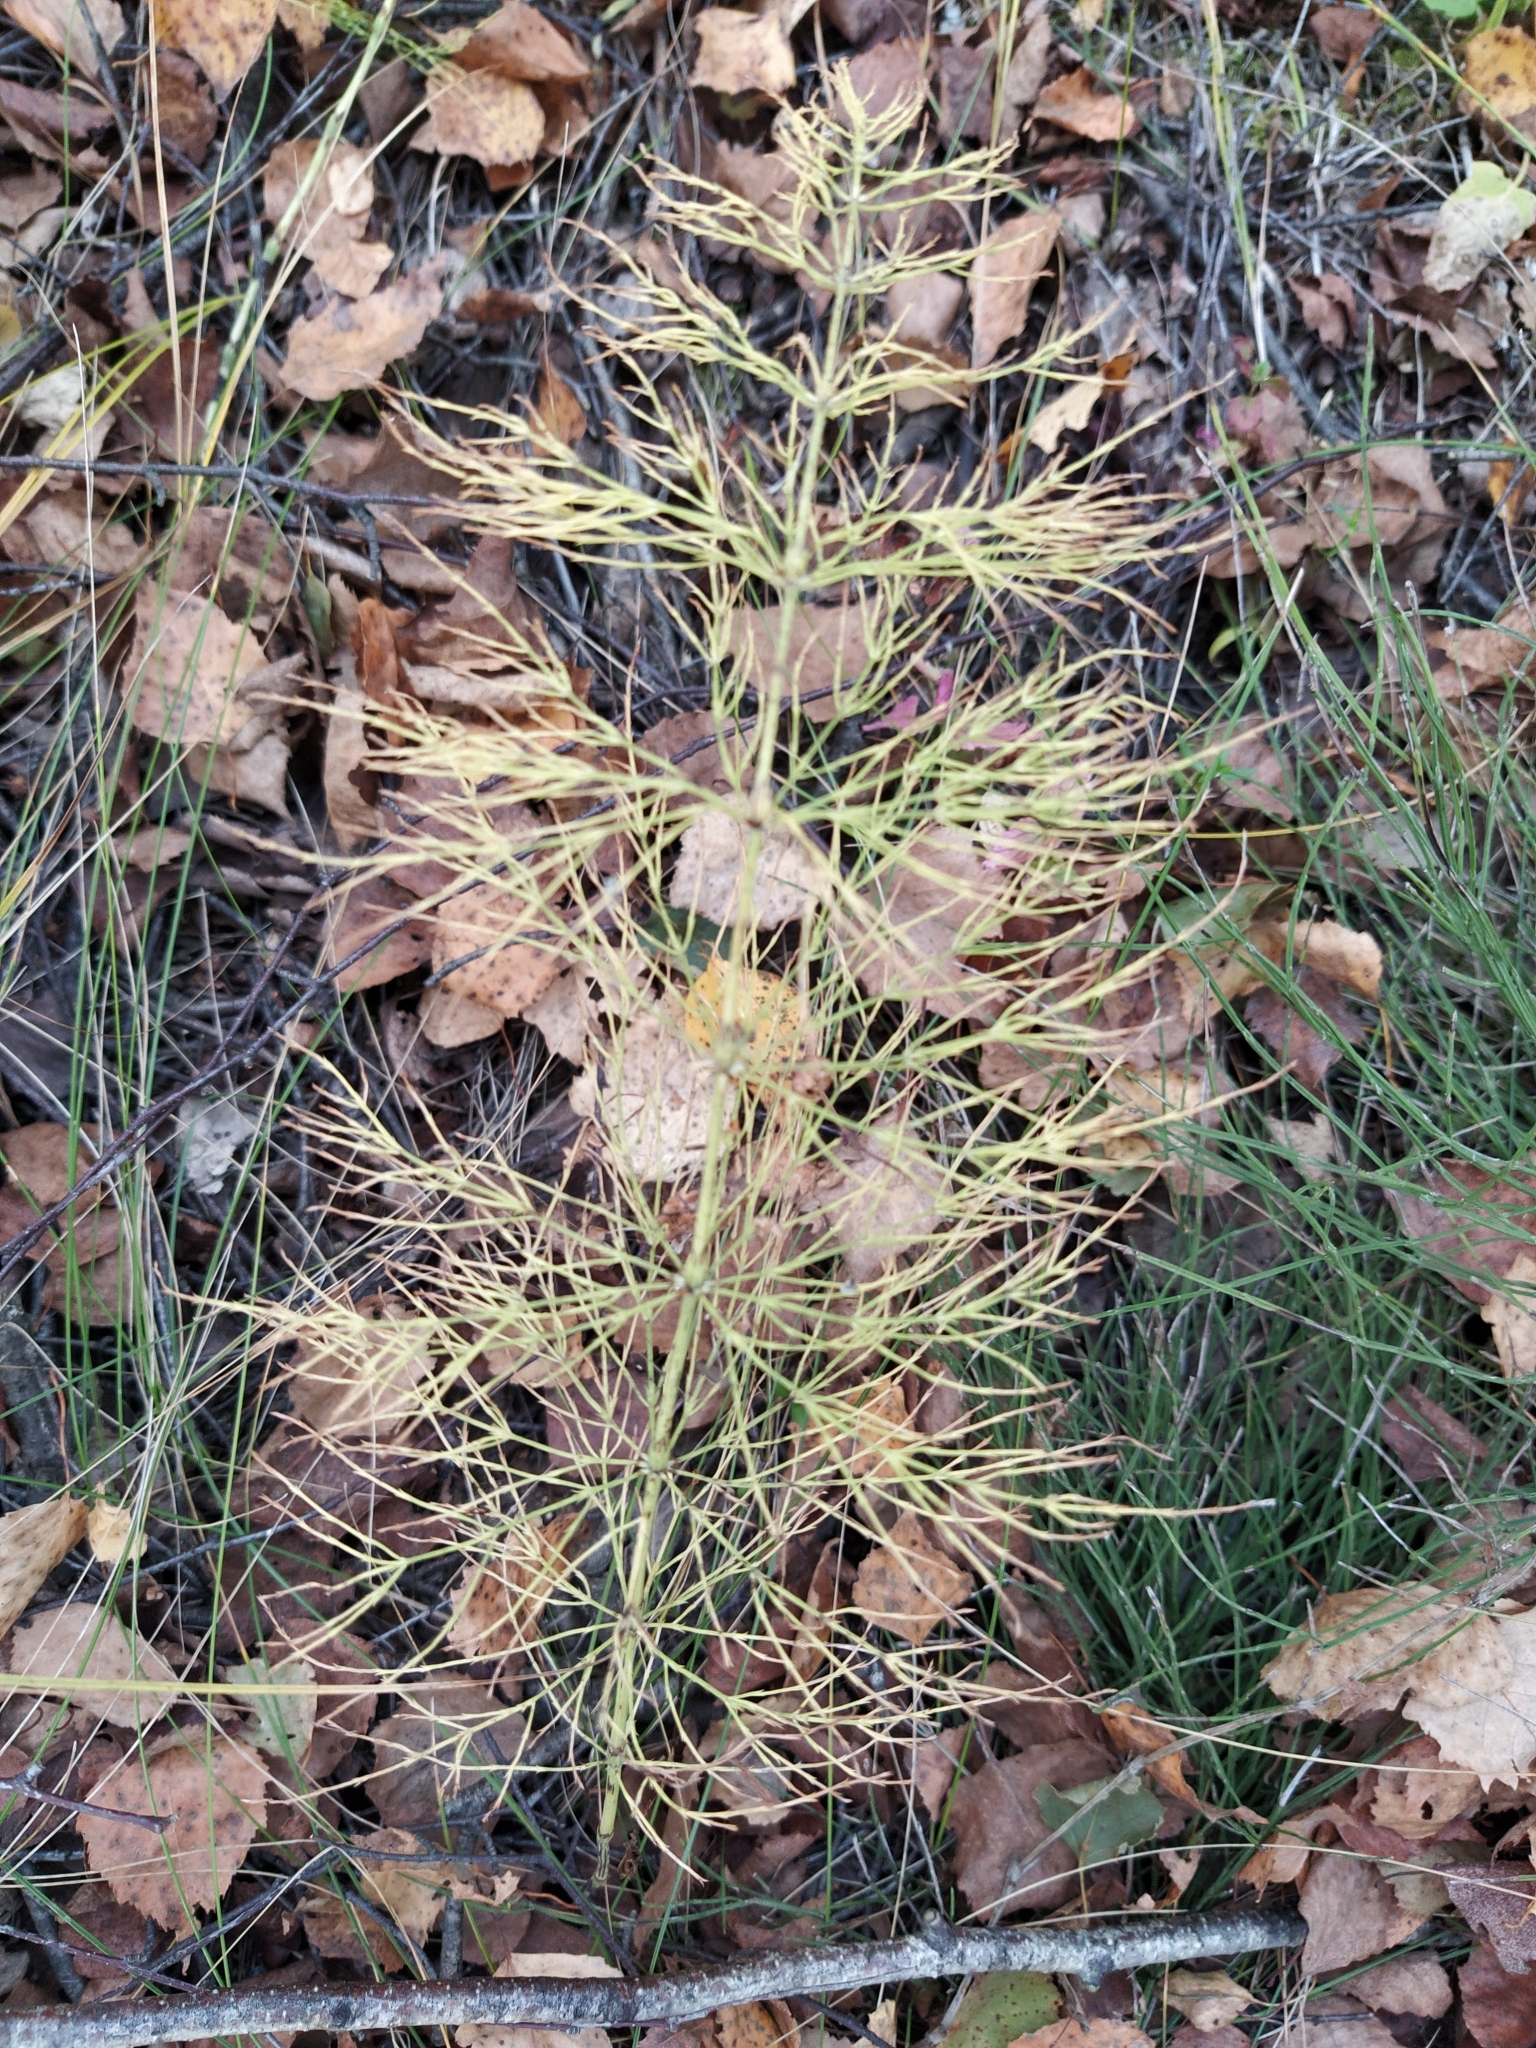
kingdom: Plantae
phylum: Tracheophyta
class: Polypodiopsida
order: Equisetales
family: Equisetaceae
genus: Equisetum
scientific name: Equisetum sylvaticum
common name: Wood horsetail
